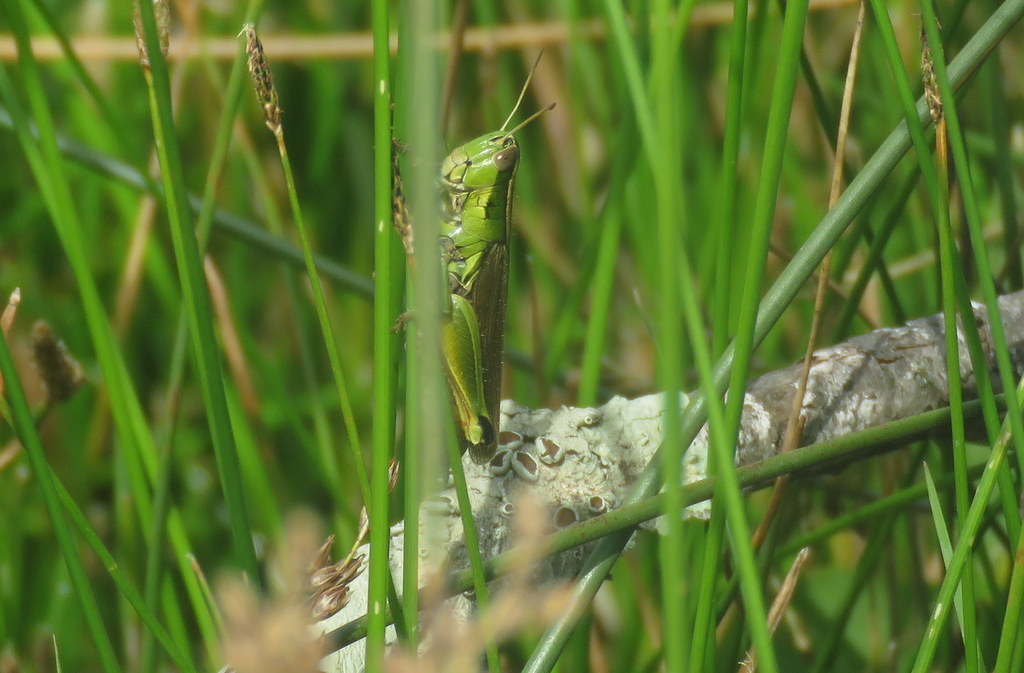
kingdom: Animalia
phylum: Arthropoda
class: Insecta
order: Orthoptera
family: Acrididae
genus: Scotussa
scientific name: Scotussa cliens
